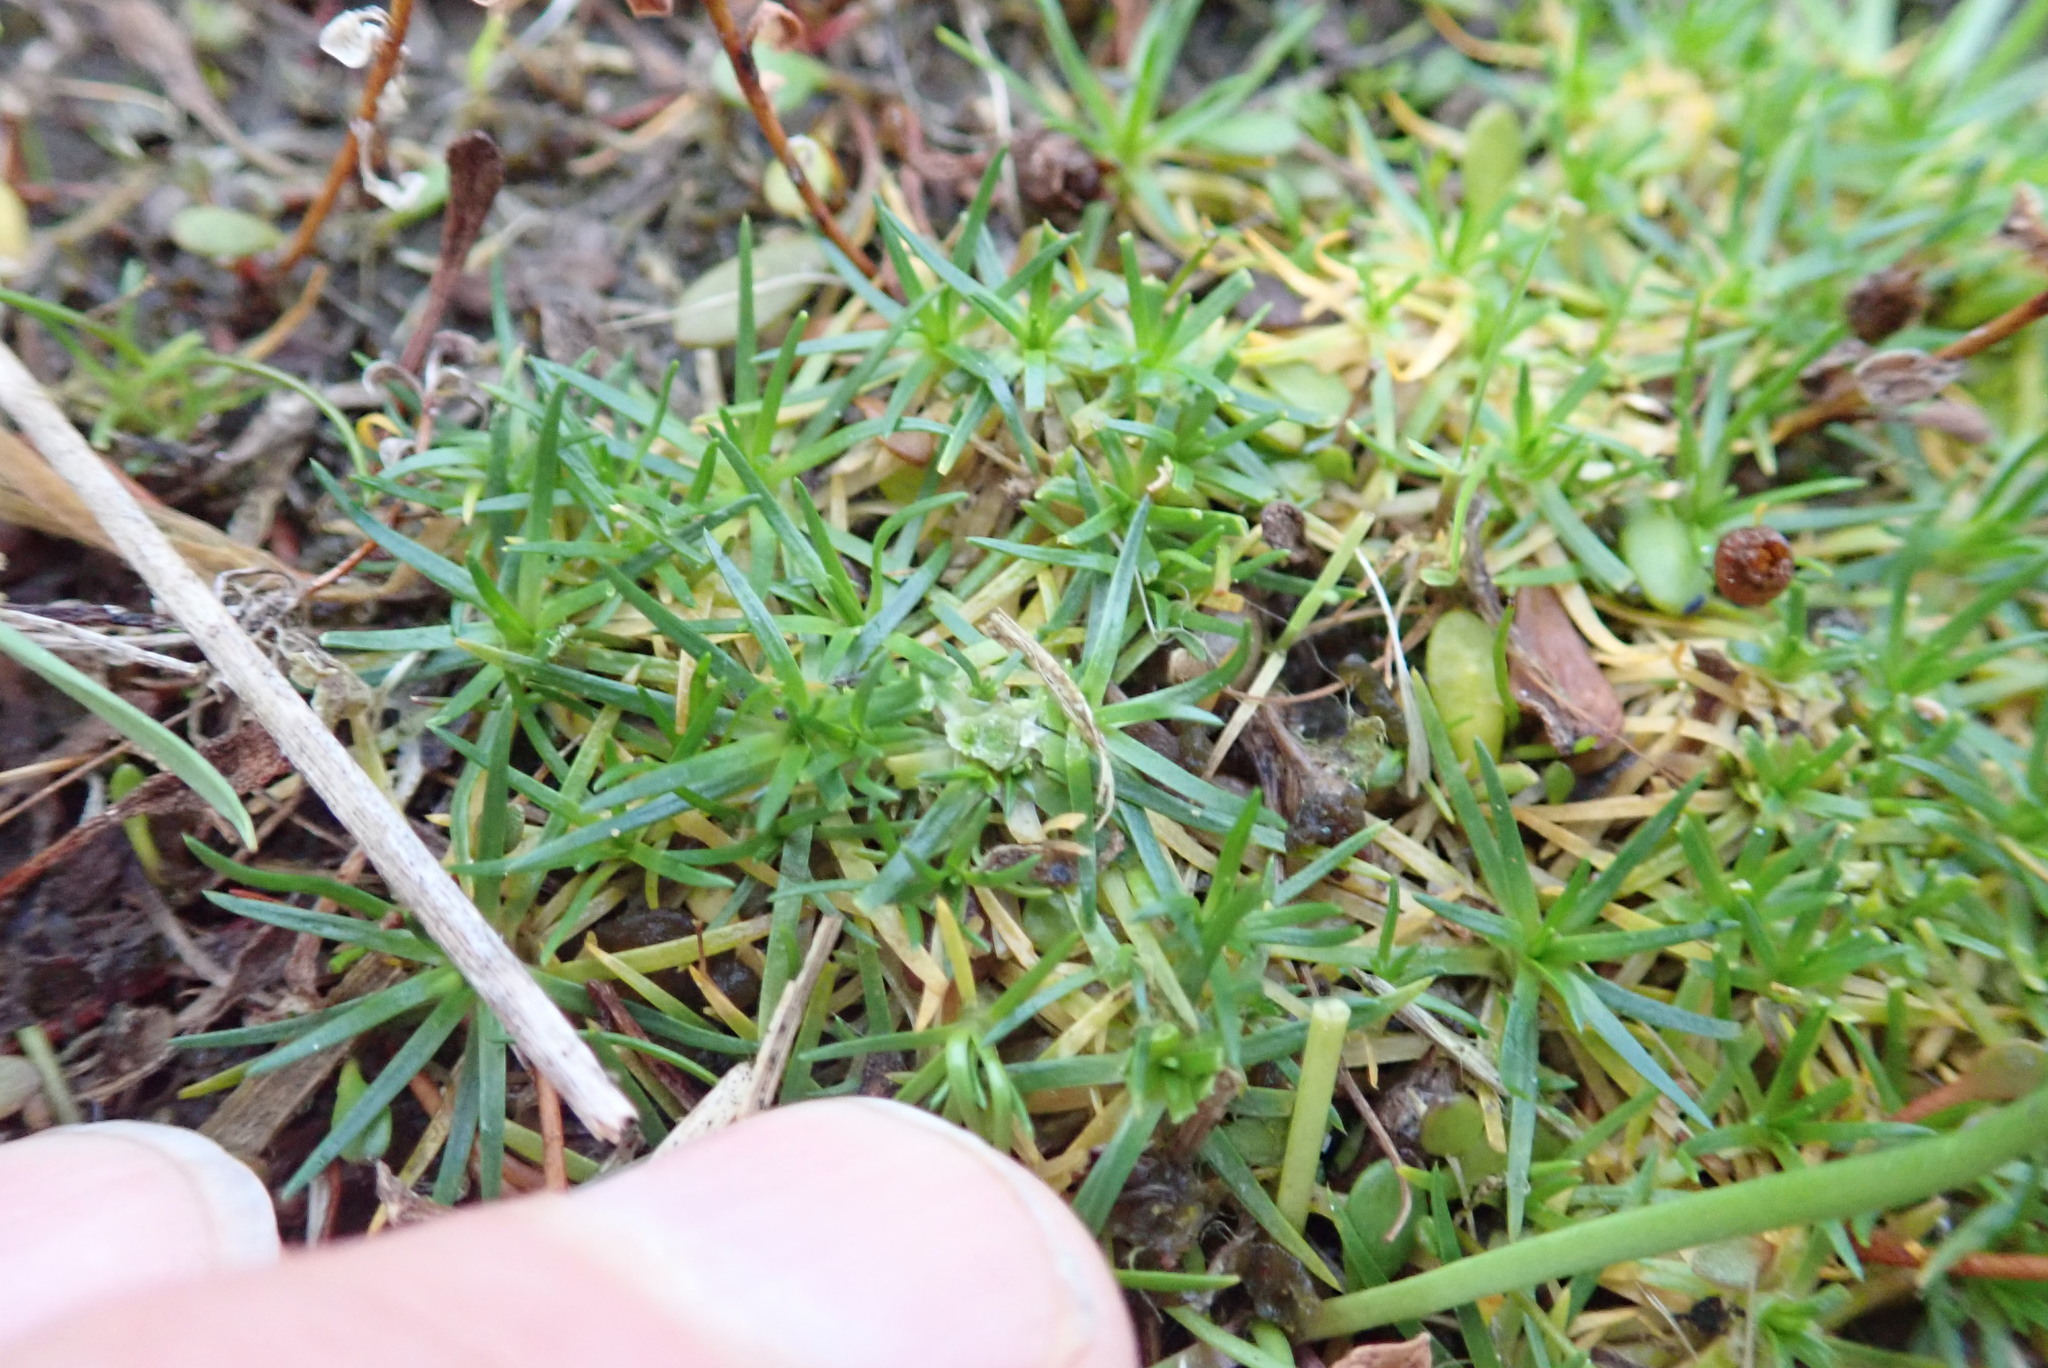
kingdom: Plantae
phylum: Tracheophyta
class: Magnoliopsida
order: Caryophyllales
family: Caryophyllaceae
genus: Sagina
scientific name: Sagina procumbens
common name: Procumbent pearlwort
